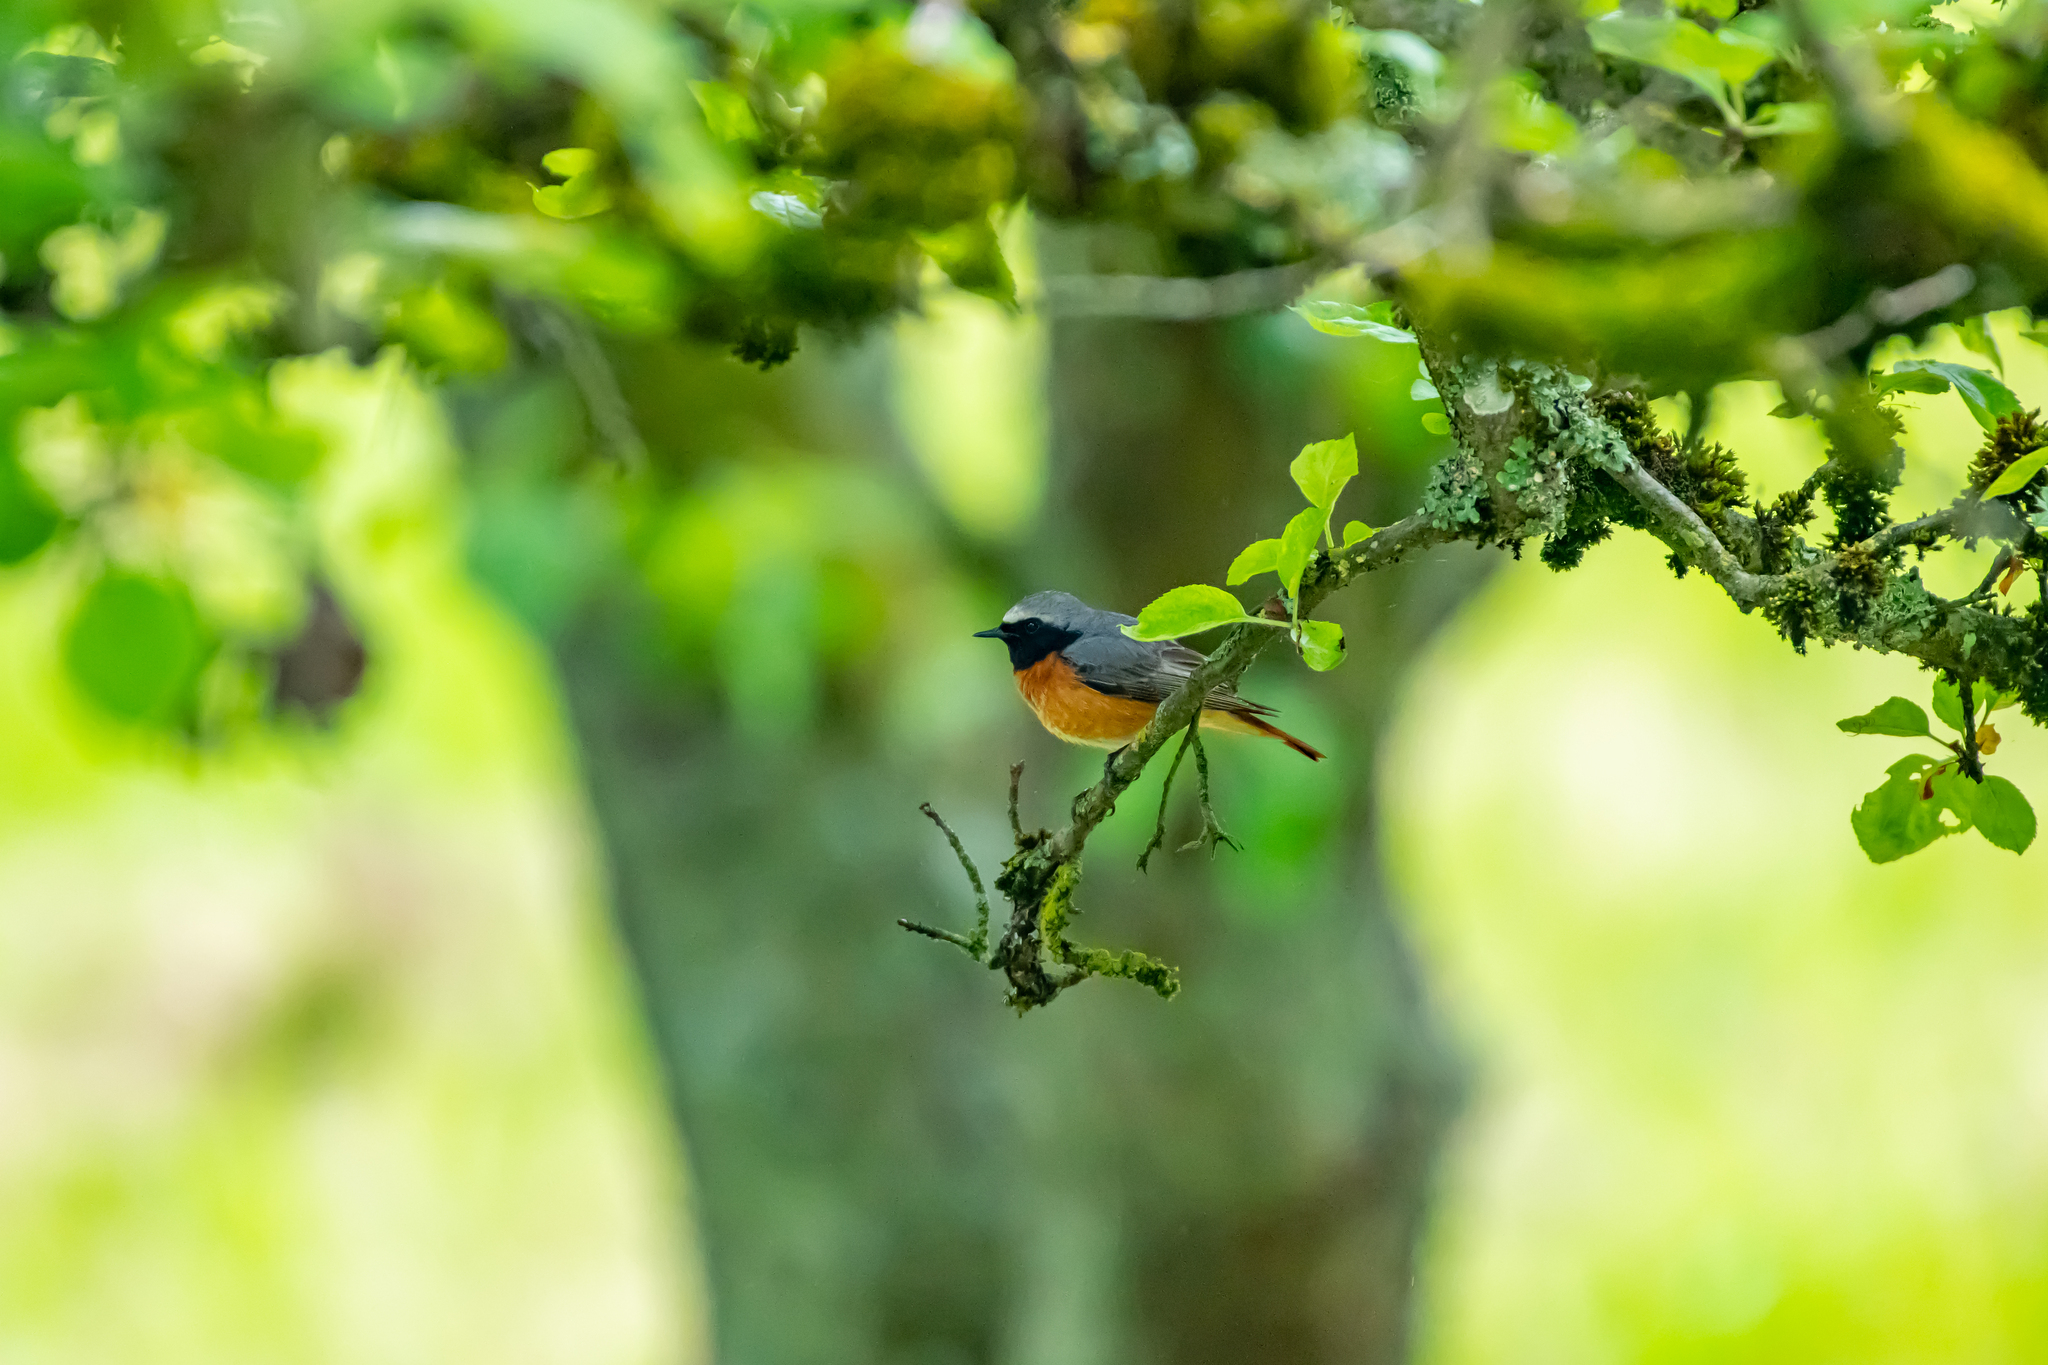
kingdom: Animalia
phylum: Chordata
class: Aves
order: Passeriformes
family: Muscicapidae
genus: Phoenicurus
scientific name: Phoenicurus phoenicurus
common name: Common redstart
